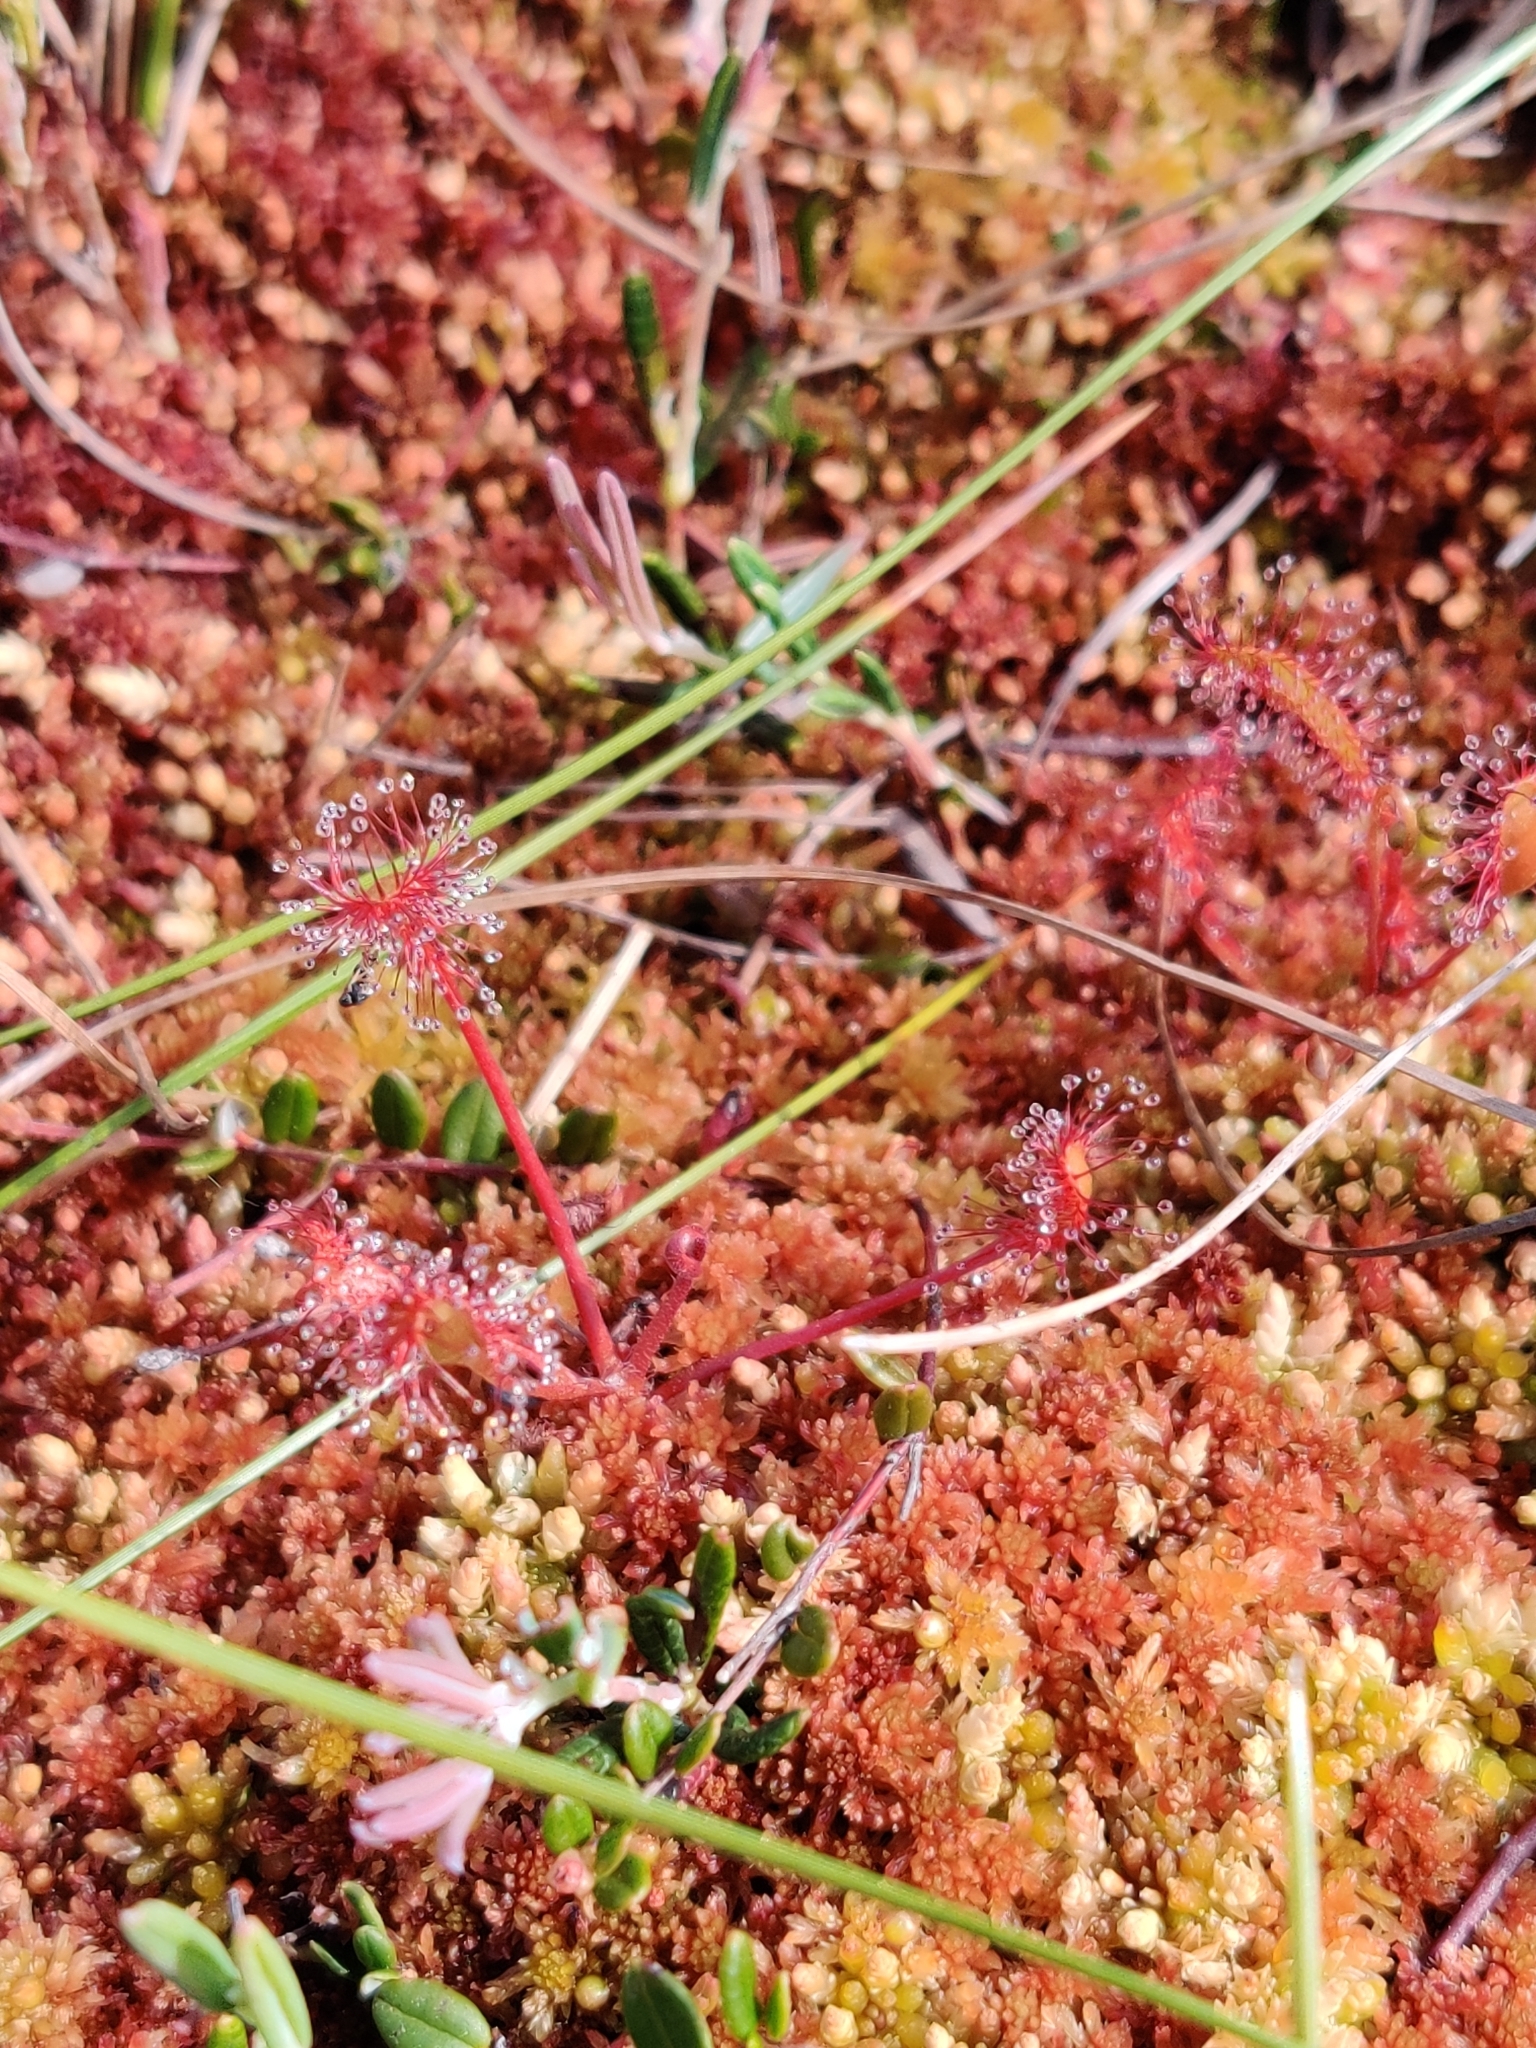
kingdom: Plantae
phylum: Tracheophyta
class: Magnoliopsida
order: Caryophyllales
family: Droseraceae
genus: Drosera
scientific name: Drosera anglica
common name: Great sundew
